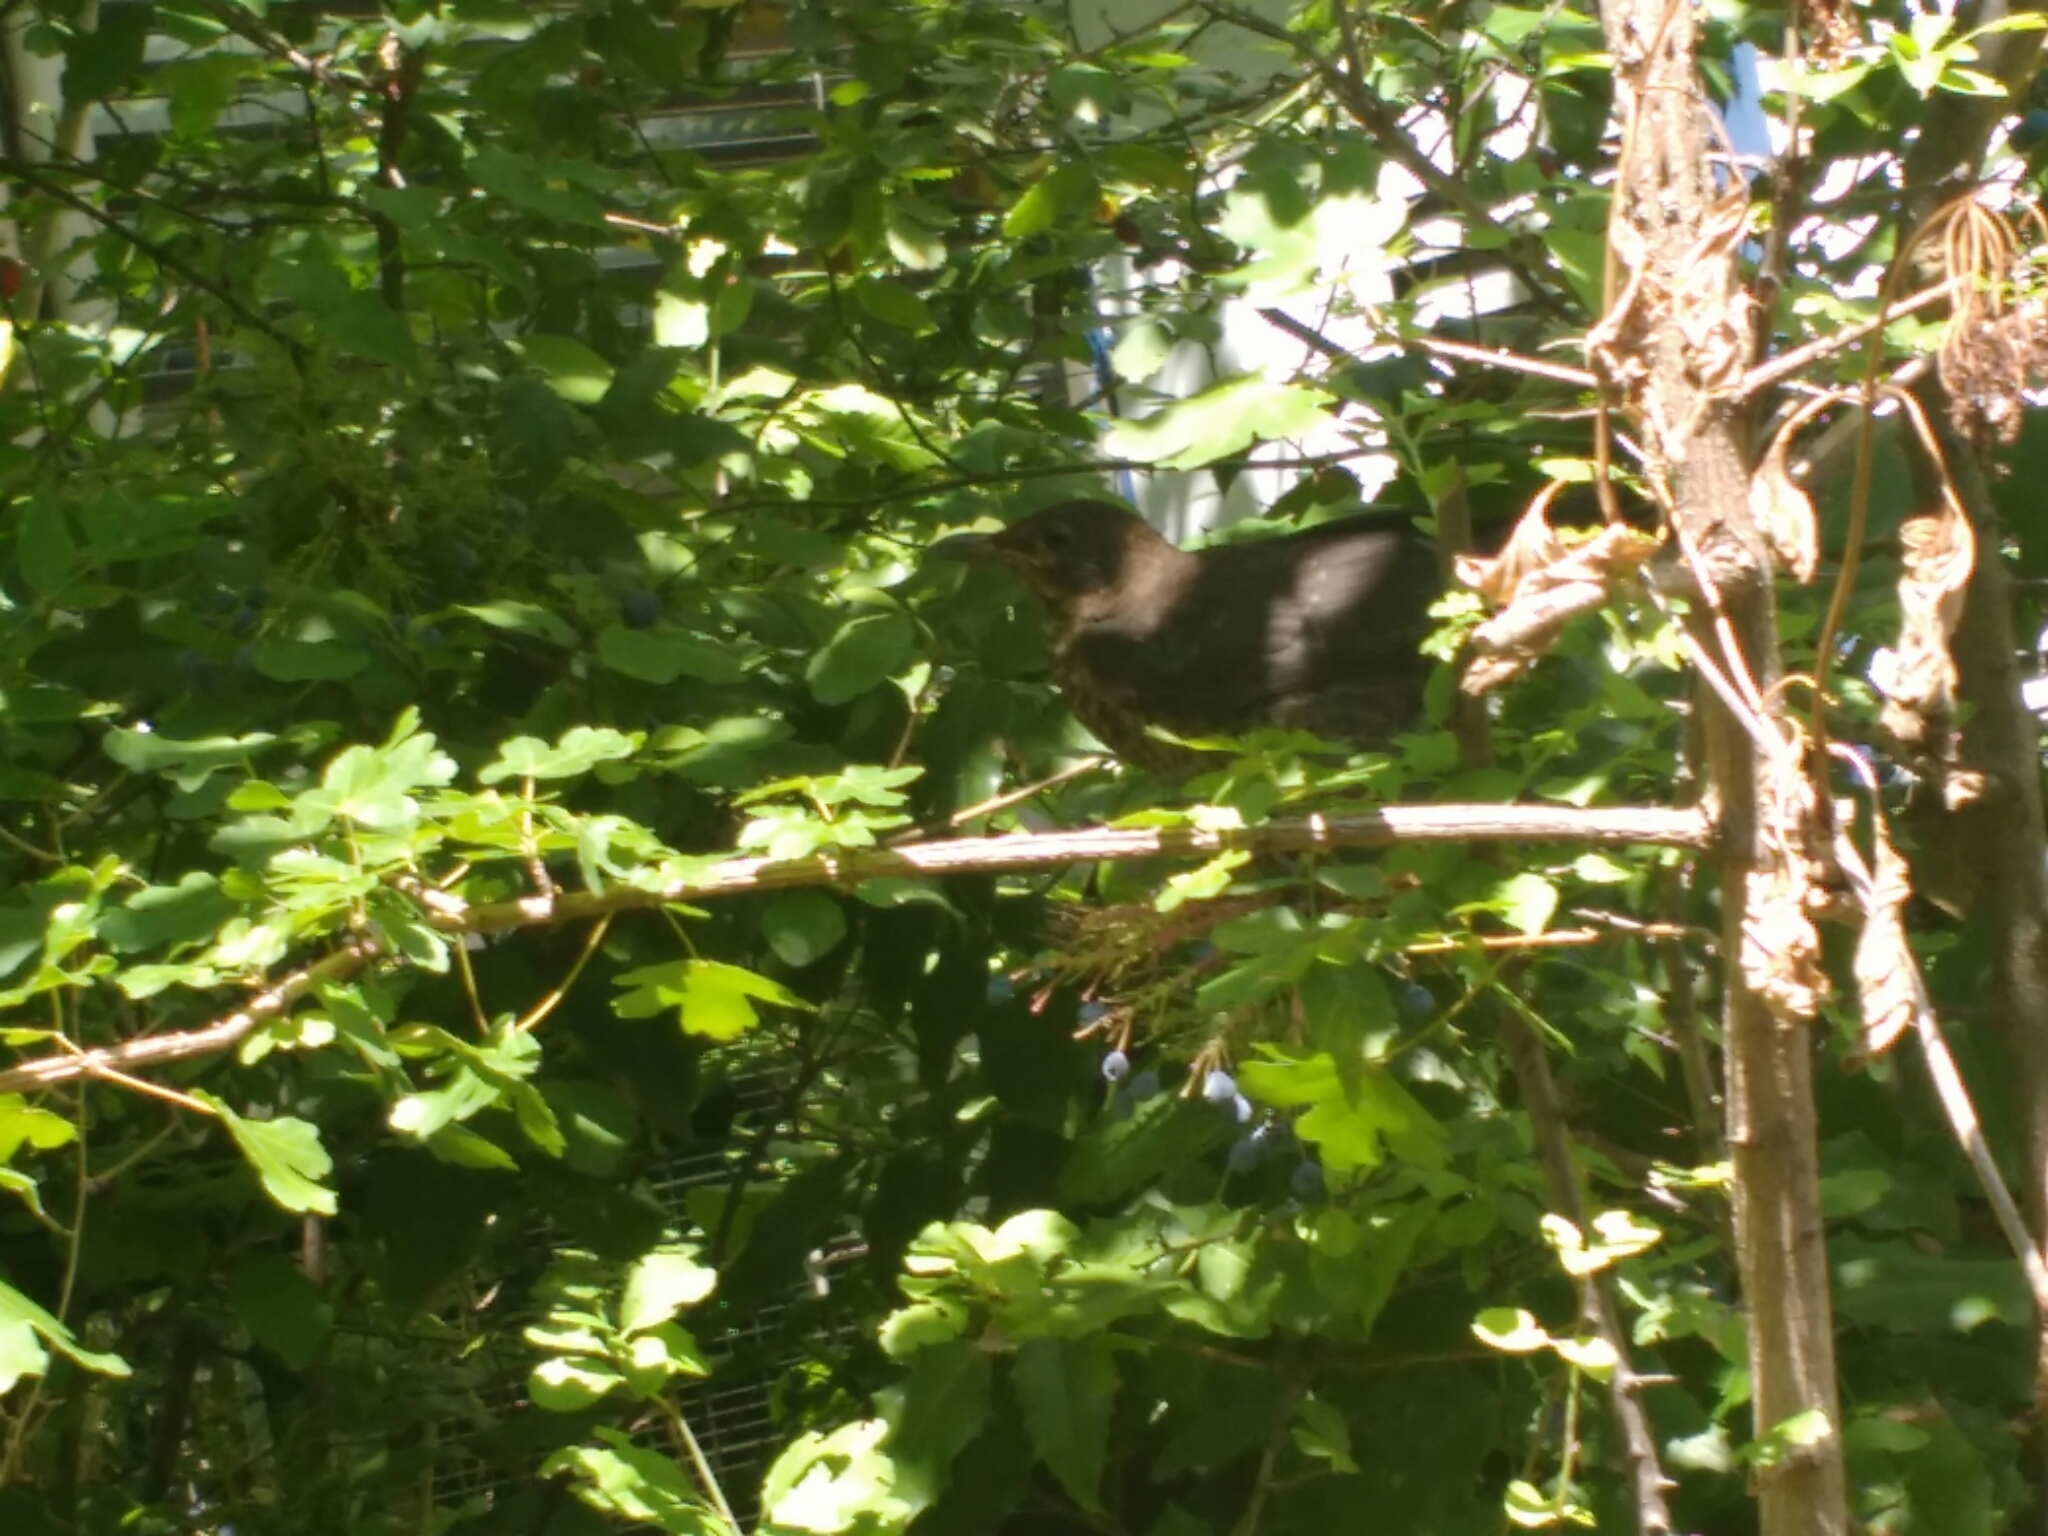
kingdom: Animalia
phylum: Chordata
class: Aves
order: Passeriformes
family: Turdidae
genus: Turdus
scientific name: Turdus merula
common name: Common blackbird
